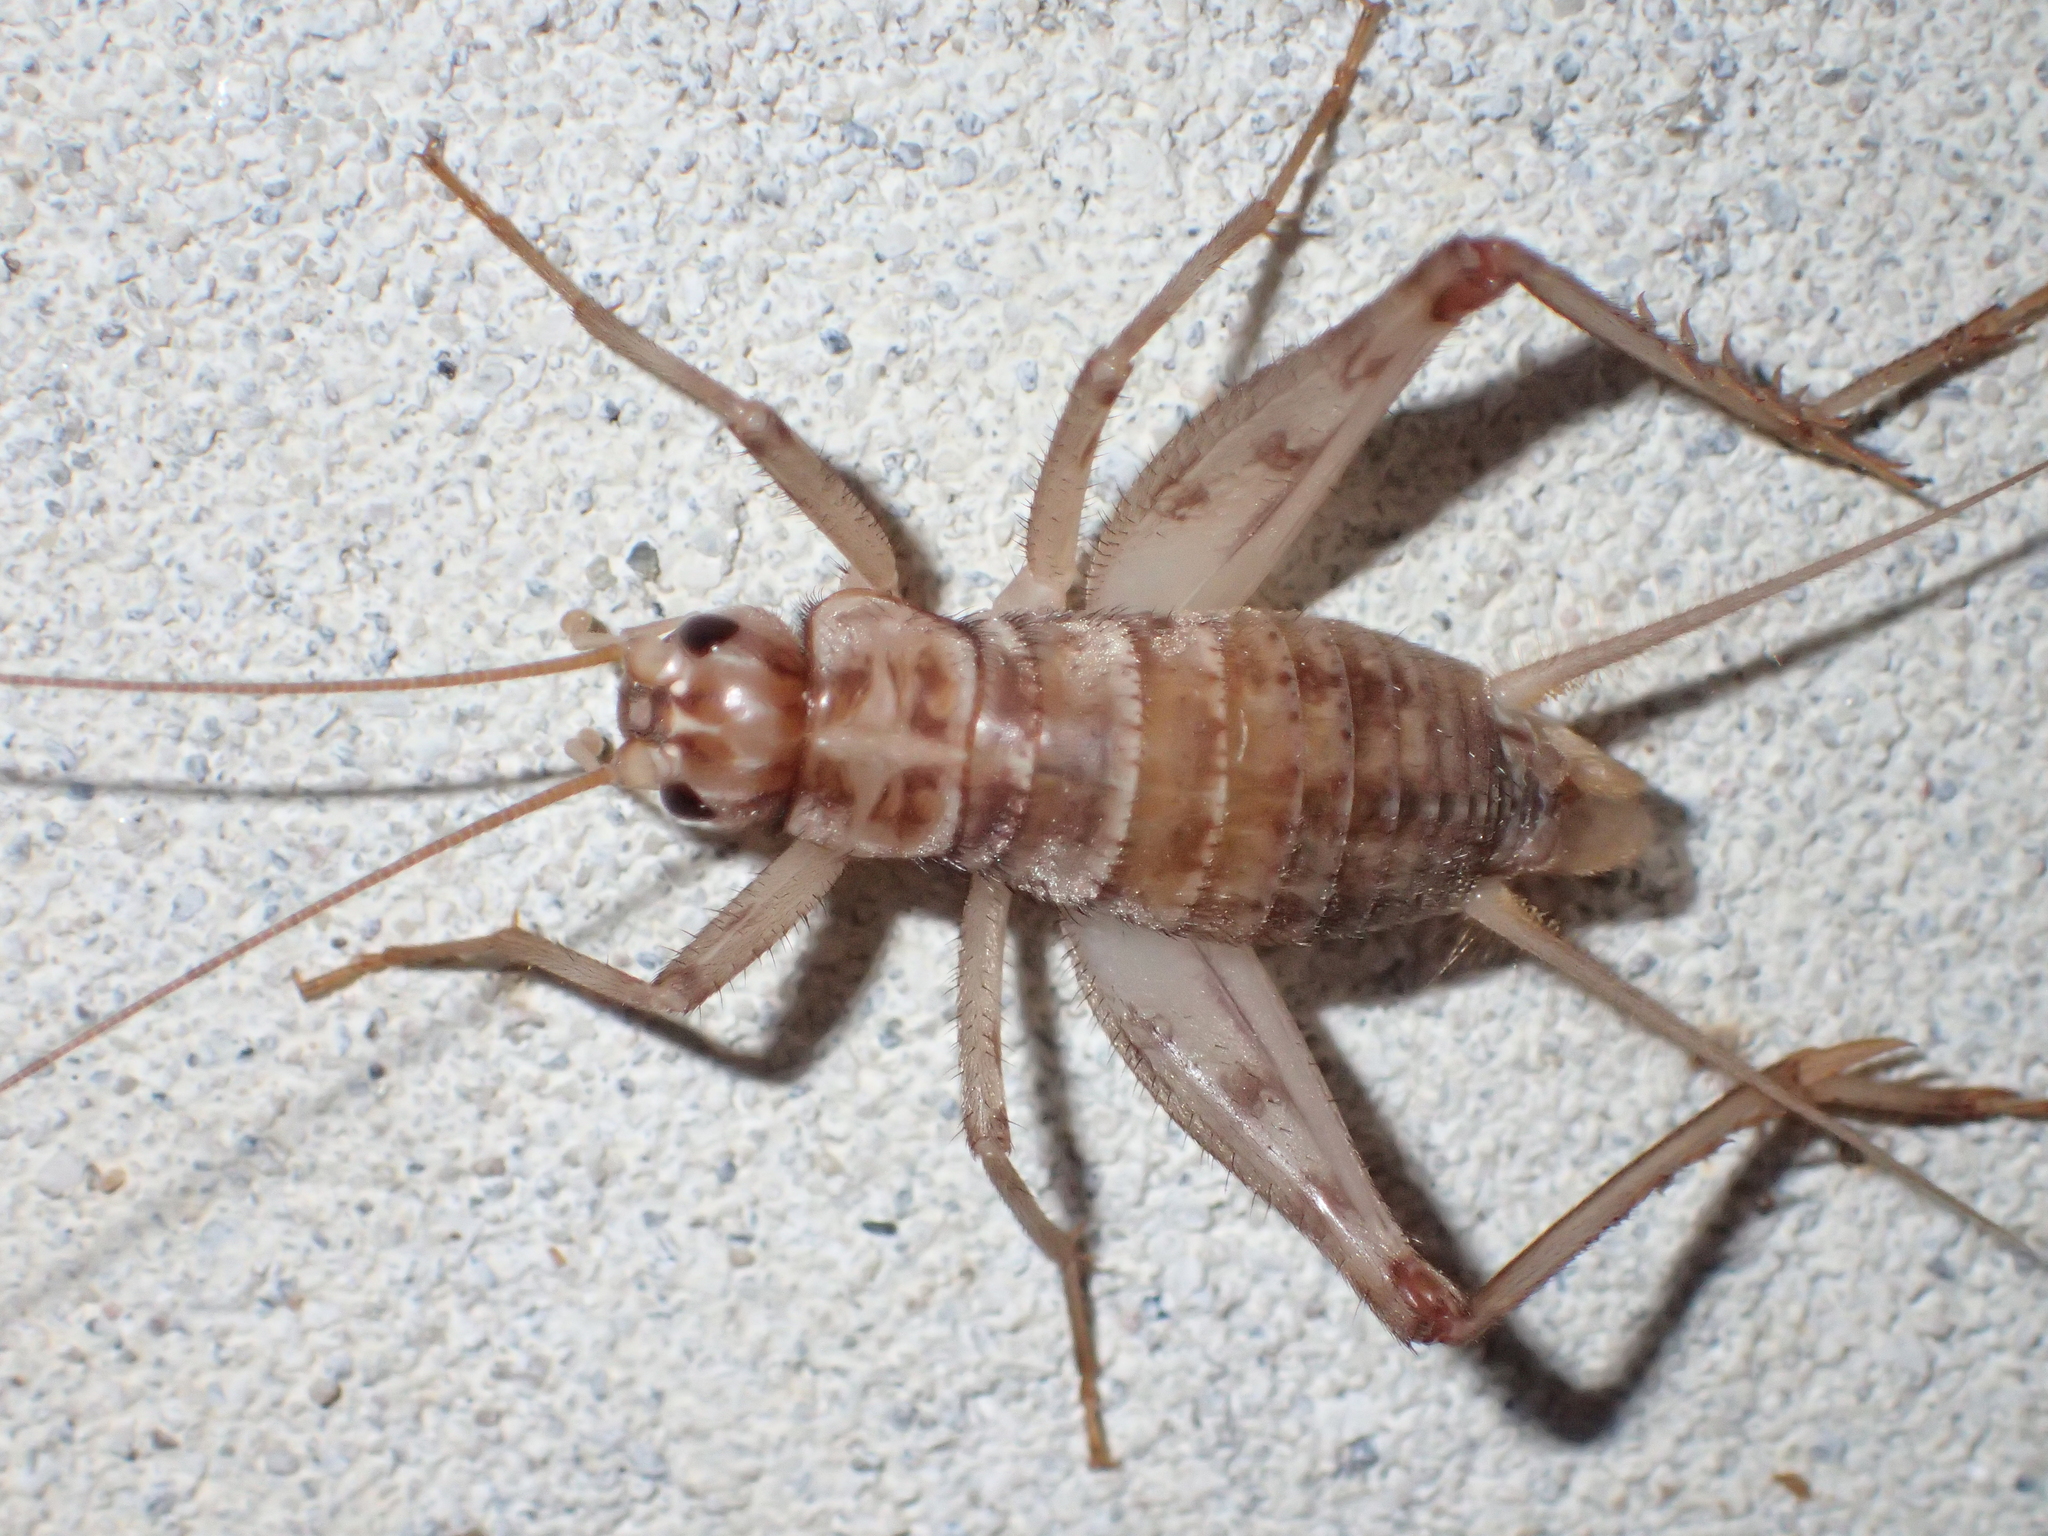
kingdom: Animalia
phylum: Arthropoda
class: Insecta
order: Orthoptera
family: Gryllidae
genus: Gryllomorpha
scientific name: Gryllomorpha dalmatina
